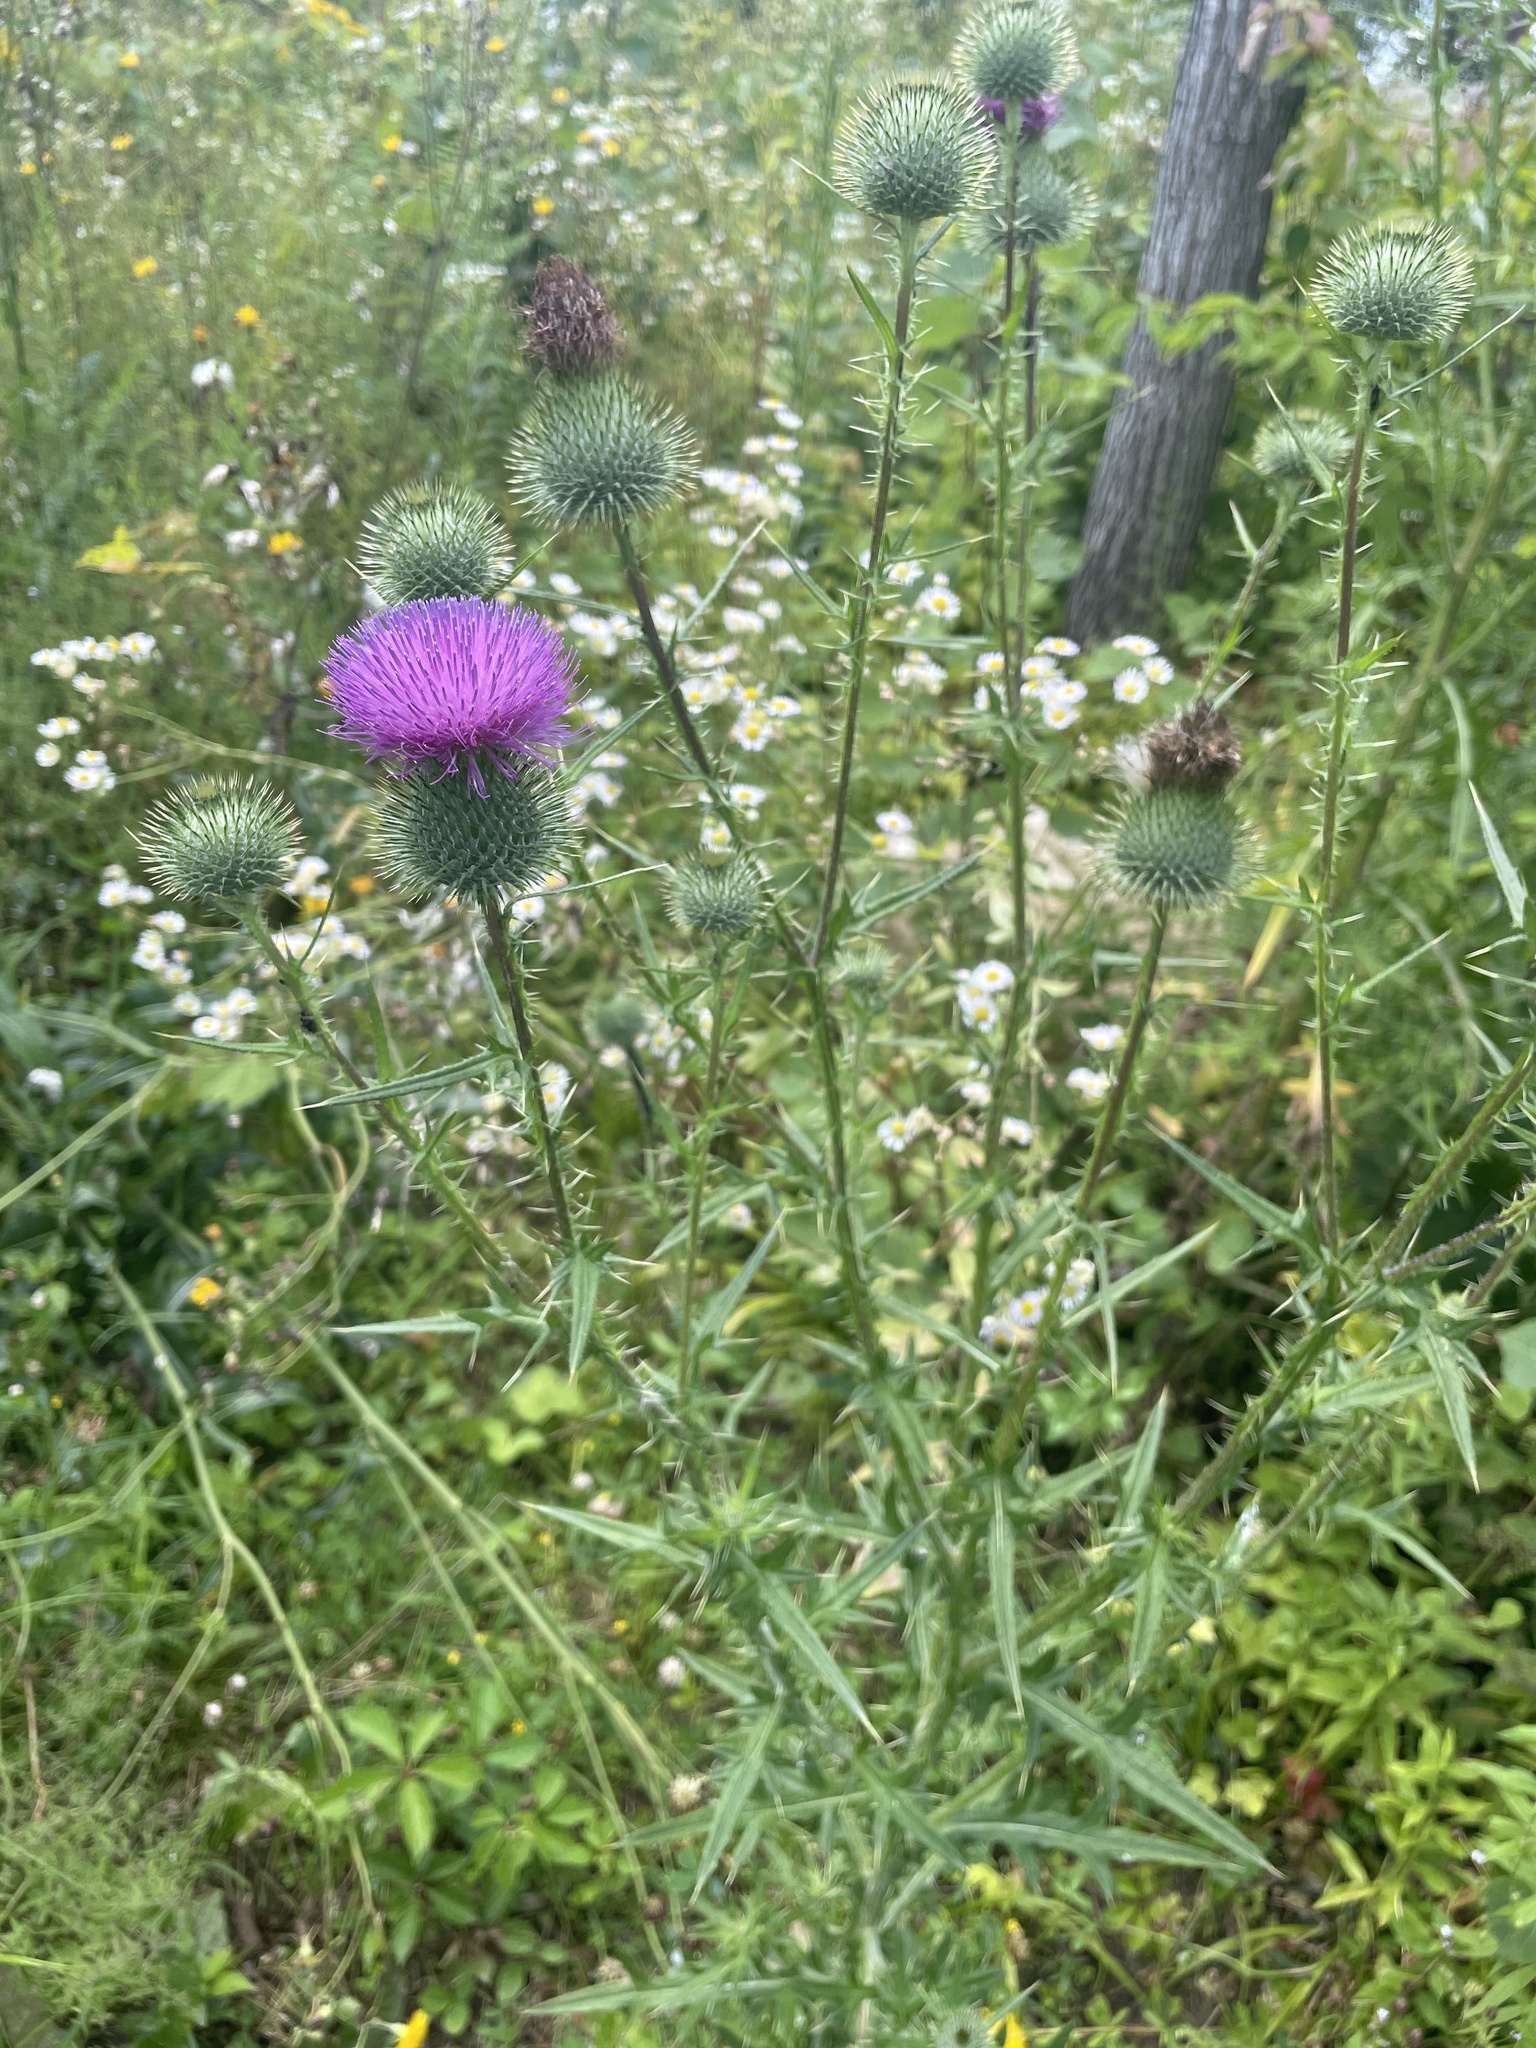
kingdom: Plantae
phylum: Tracheophyta
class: Magnoliopsida
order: Asterales
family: Asteraceae
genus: Cirsium
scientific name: Cirsium vulgare
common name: Bull thistle
